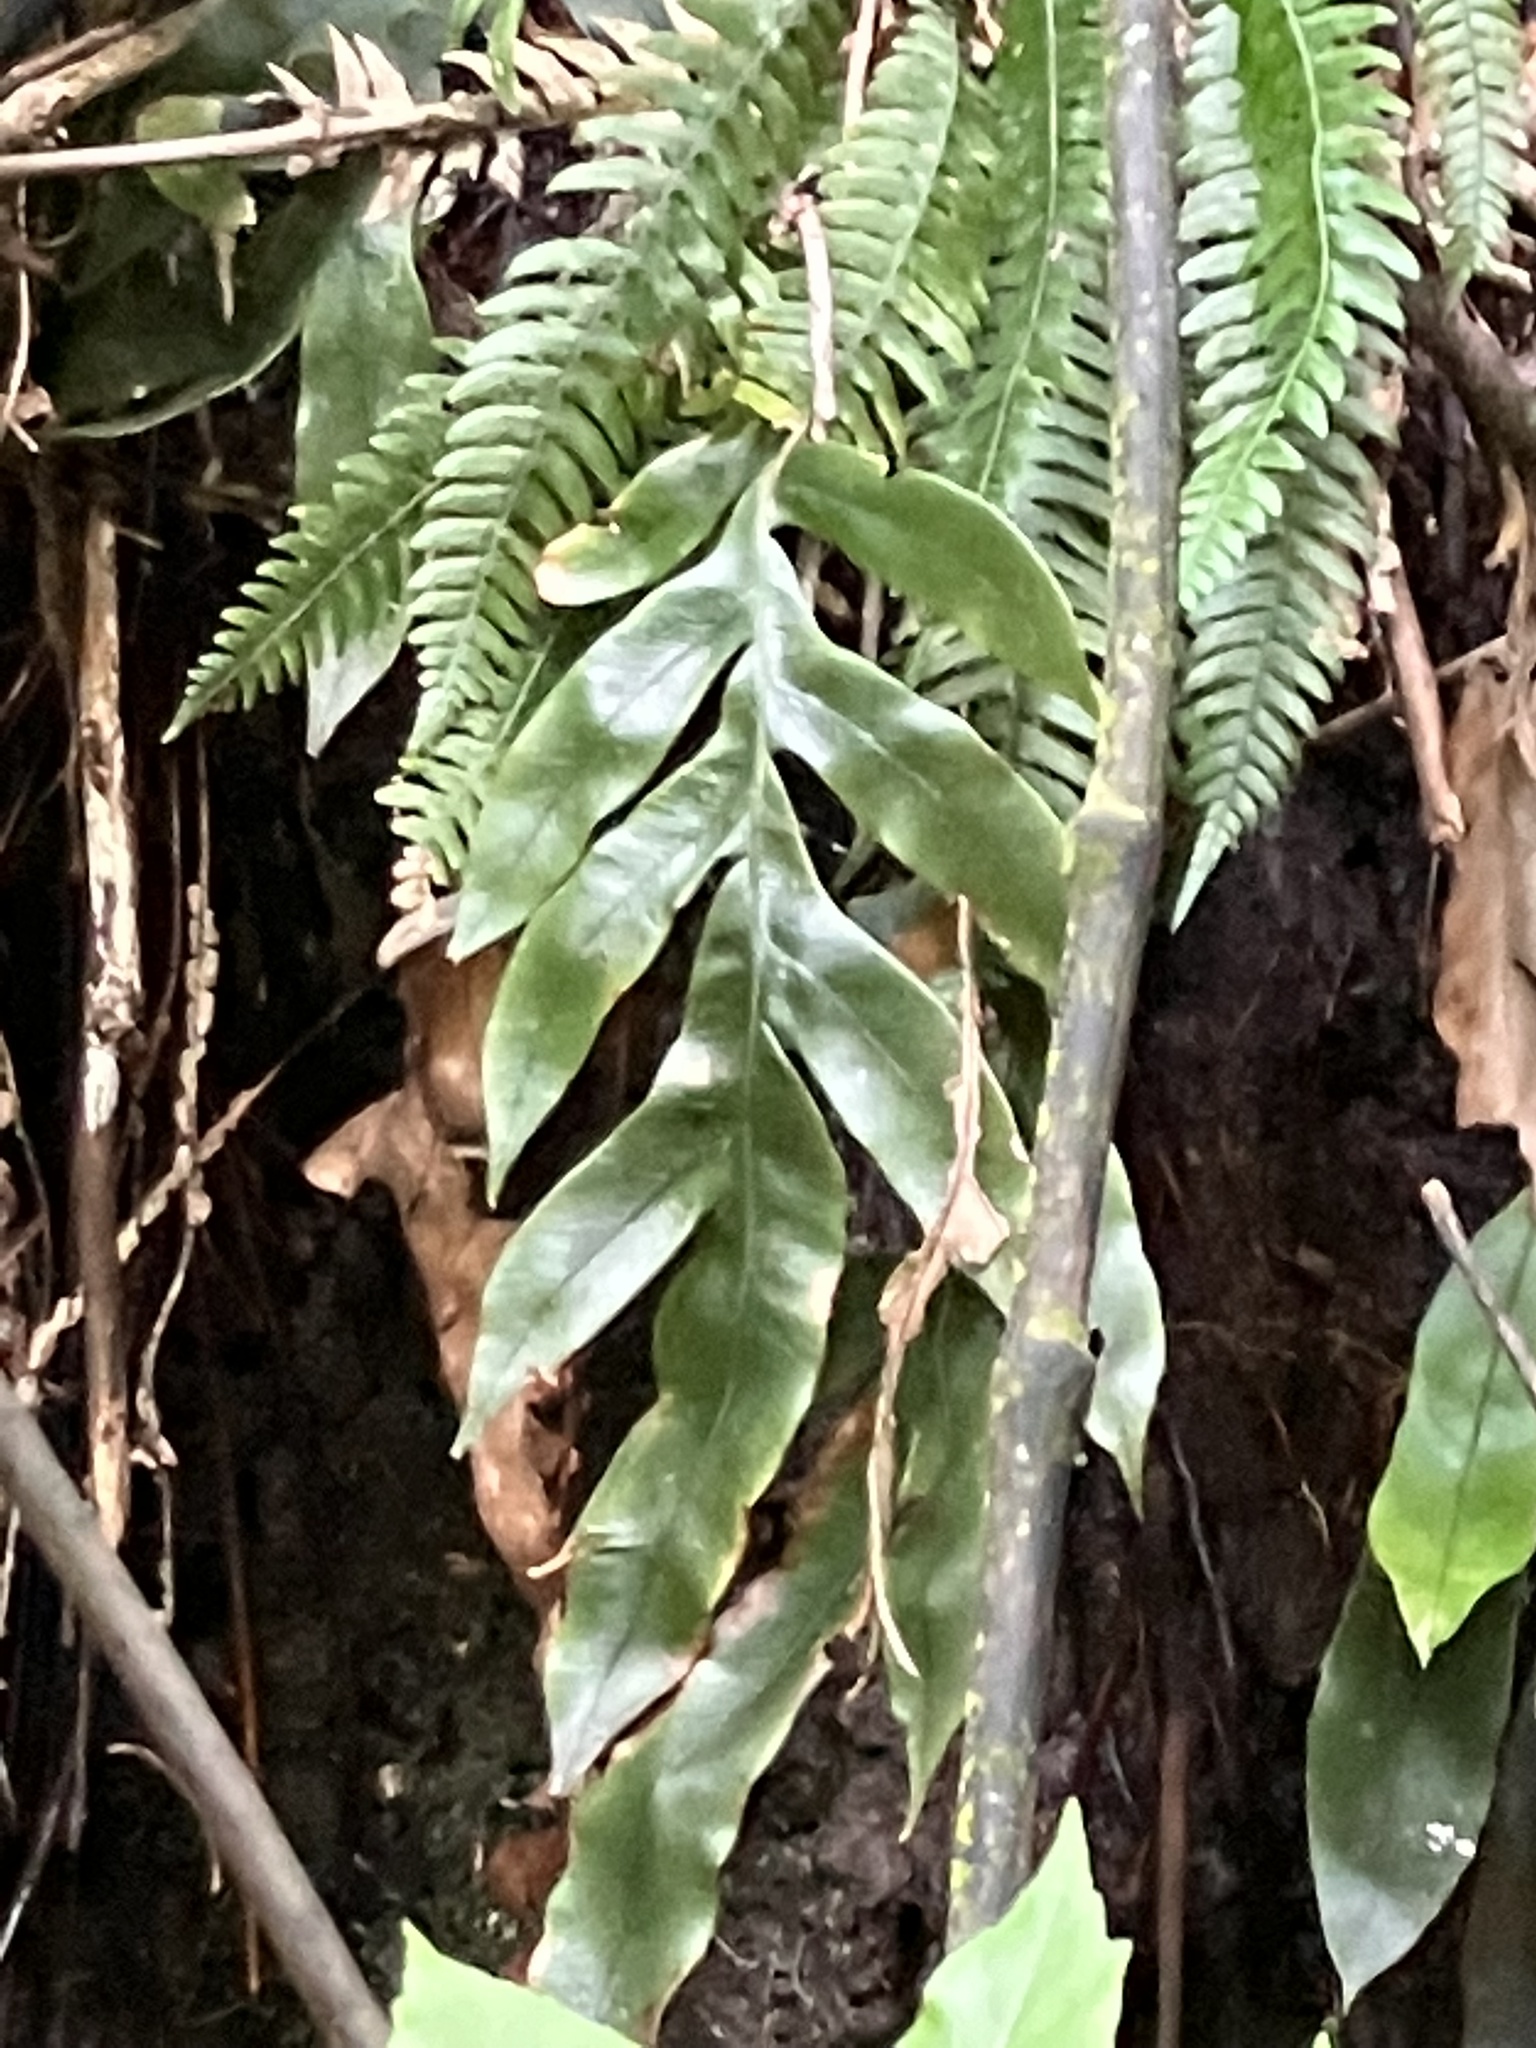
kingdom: Plantae
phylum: Tracheophyta
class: Polypodiopsida
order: Polypodiales
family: Blechnaceae
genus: Austroblechnum
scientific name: Austroblechnum colensoi
